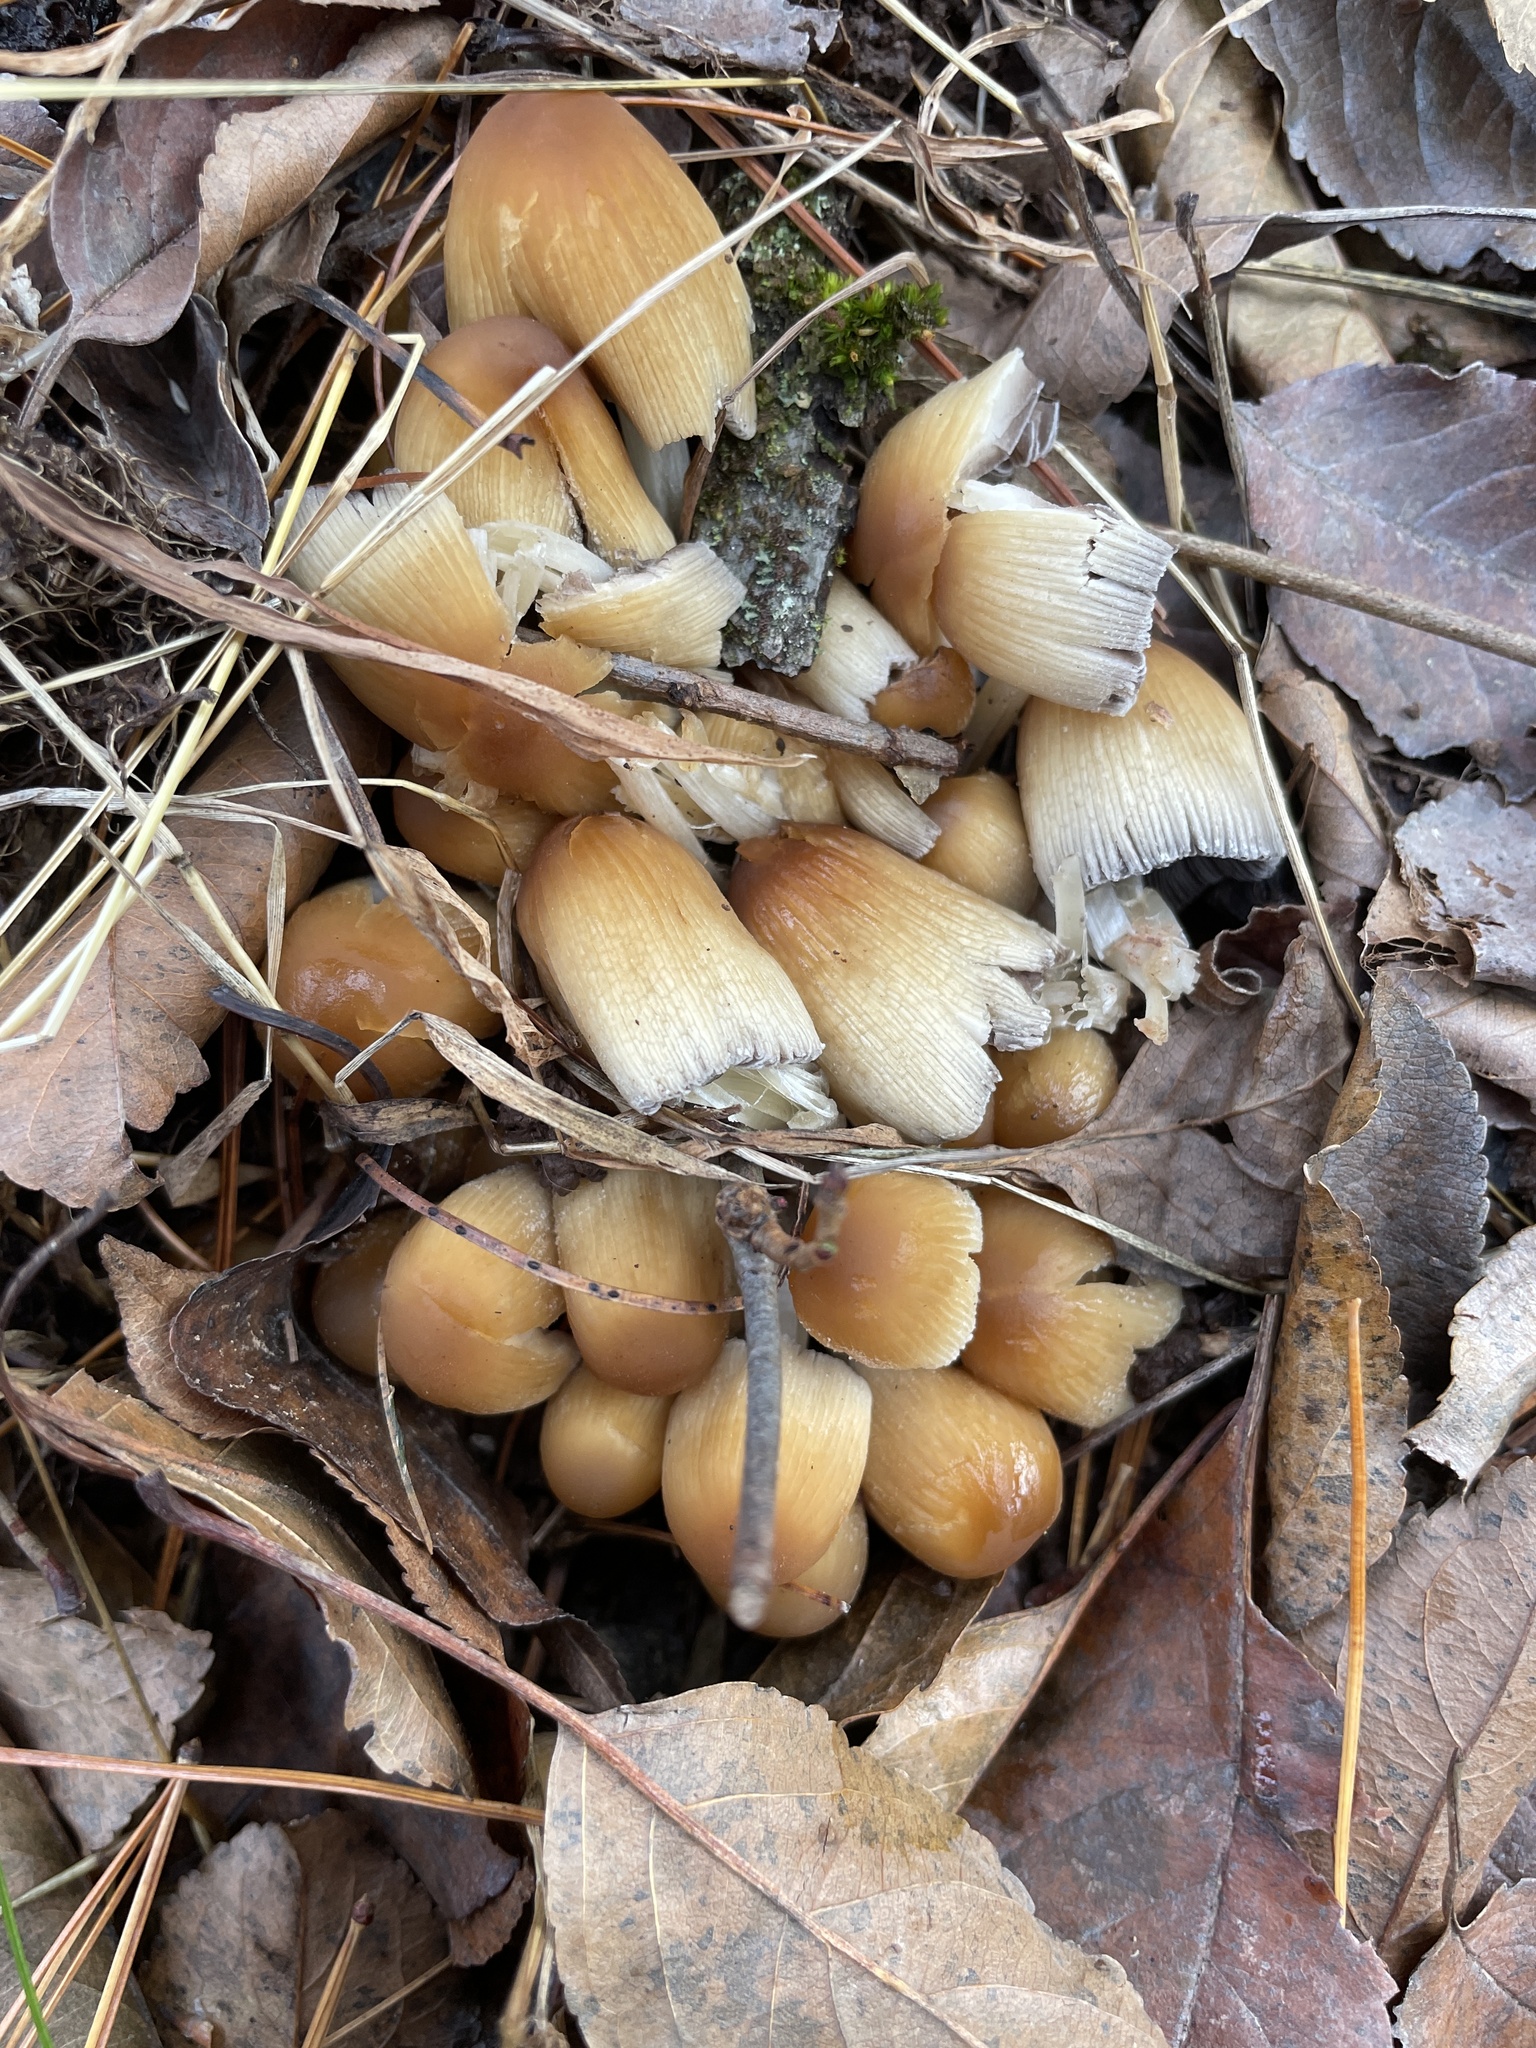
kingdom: Fungi
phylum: Basidiomycota
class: Agaricomycetes
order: Agaricales
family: Psathyrellaceae
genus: Coprinellus
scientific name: Coprinellus micaceus
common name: Glistening ink-cap
